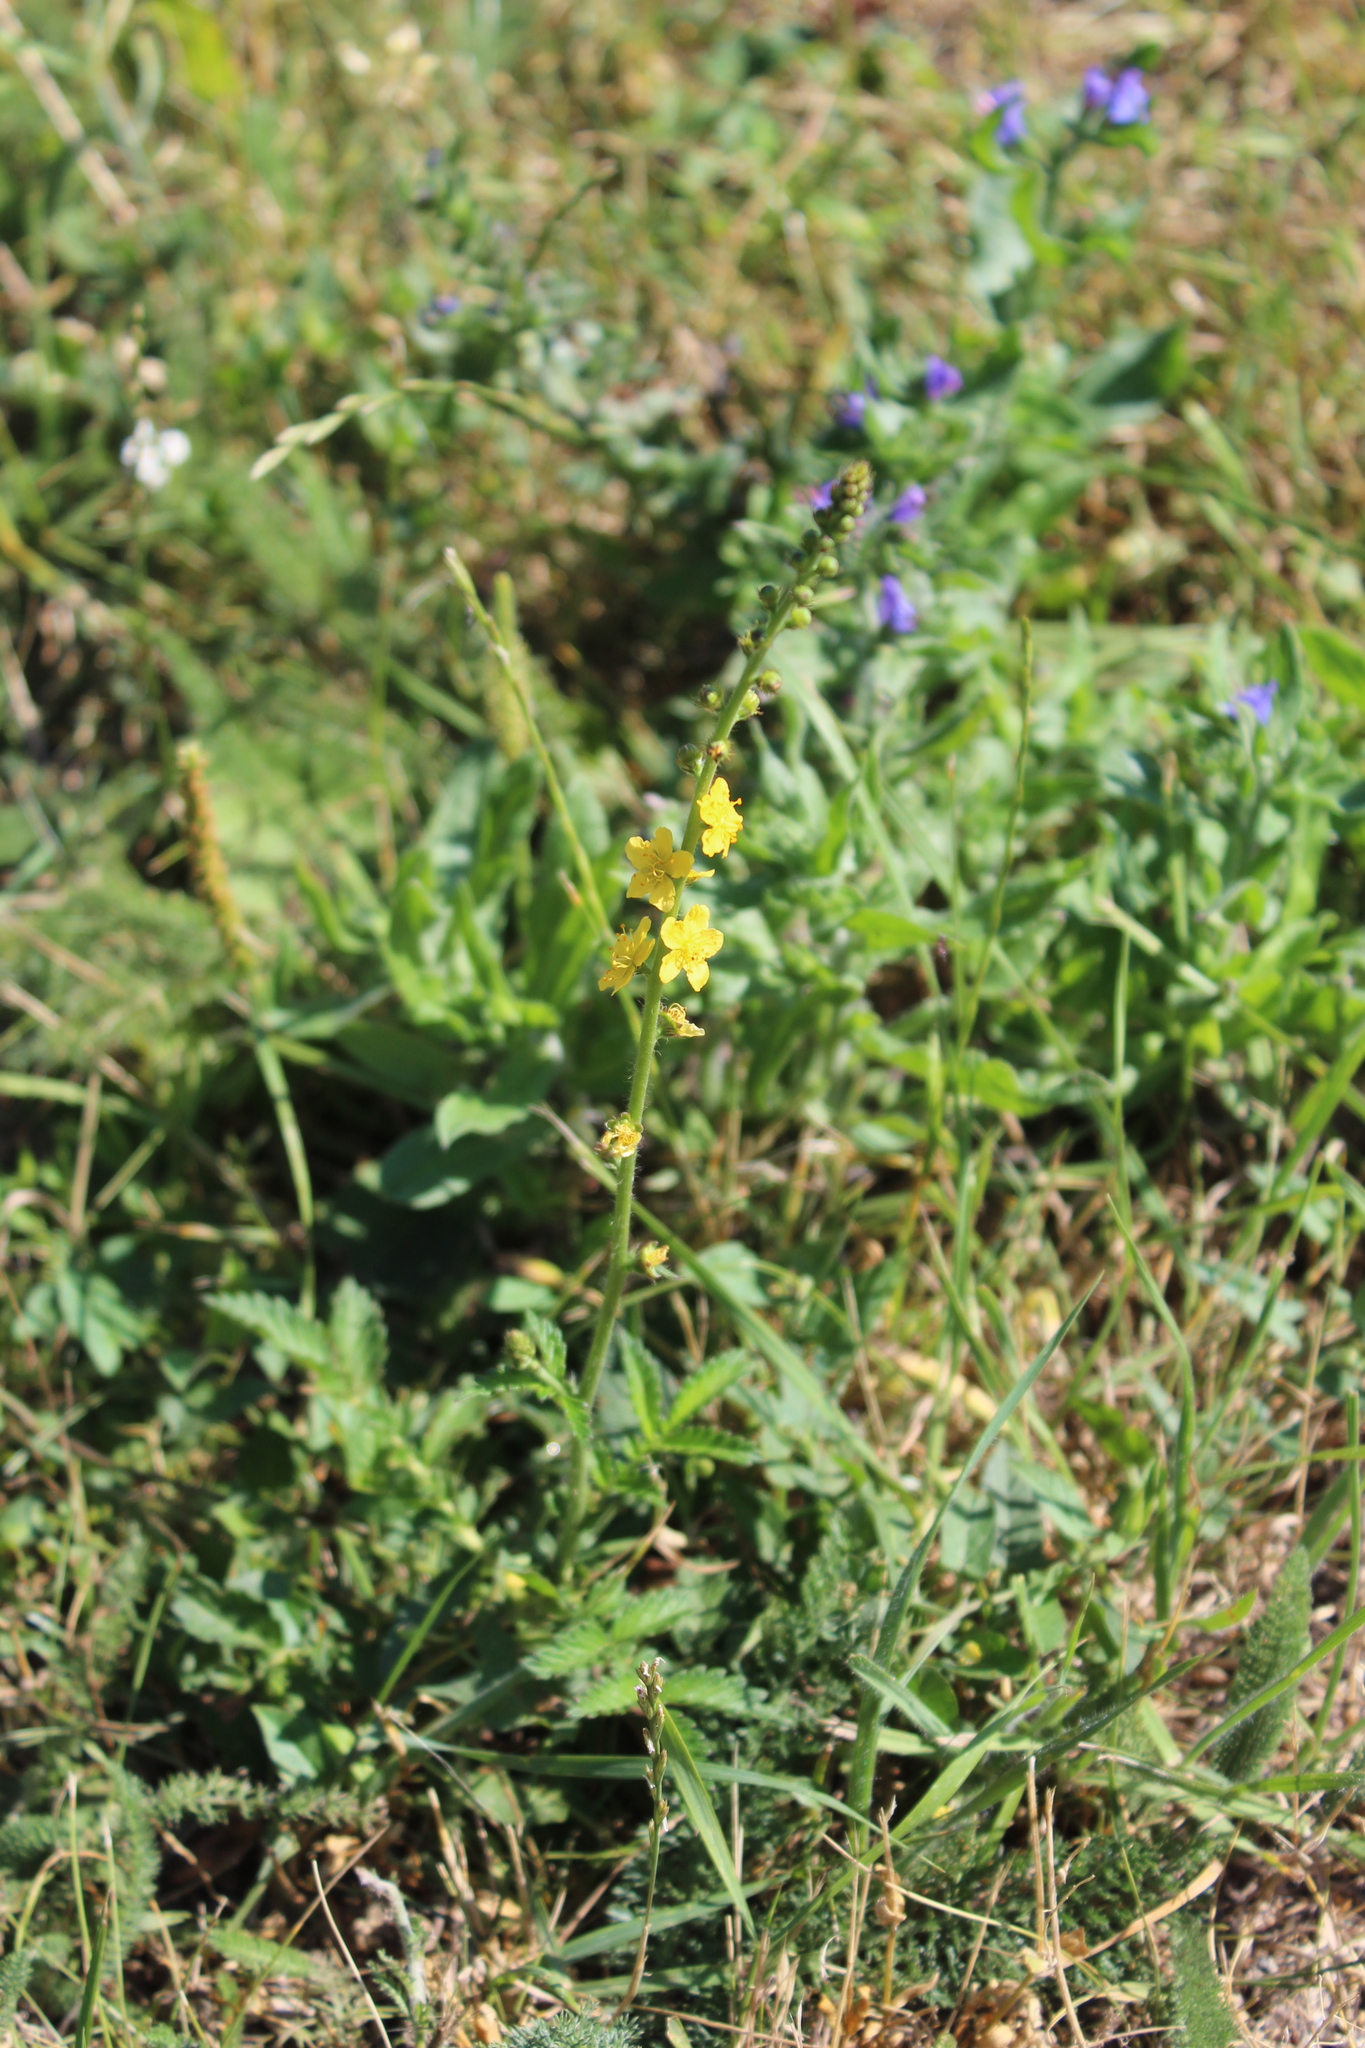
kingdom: Plantae
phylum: Tracheophyta
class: Magnoliopsida
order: Rosales
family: Rosaceae
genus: Agrimonia
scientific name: Agrimonia eupatoria
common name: Agrimony
